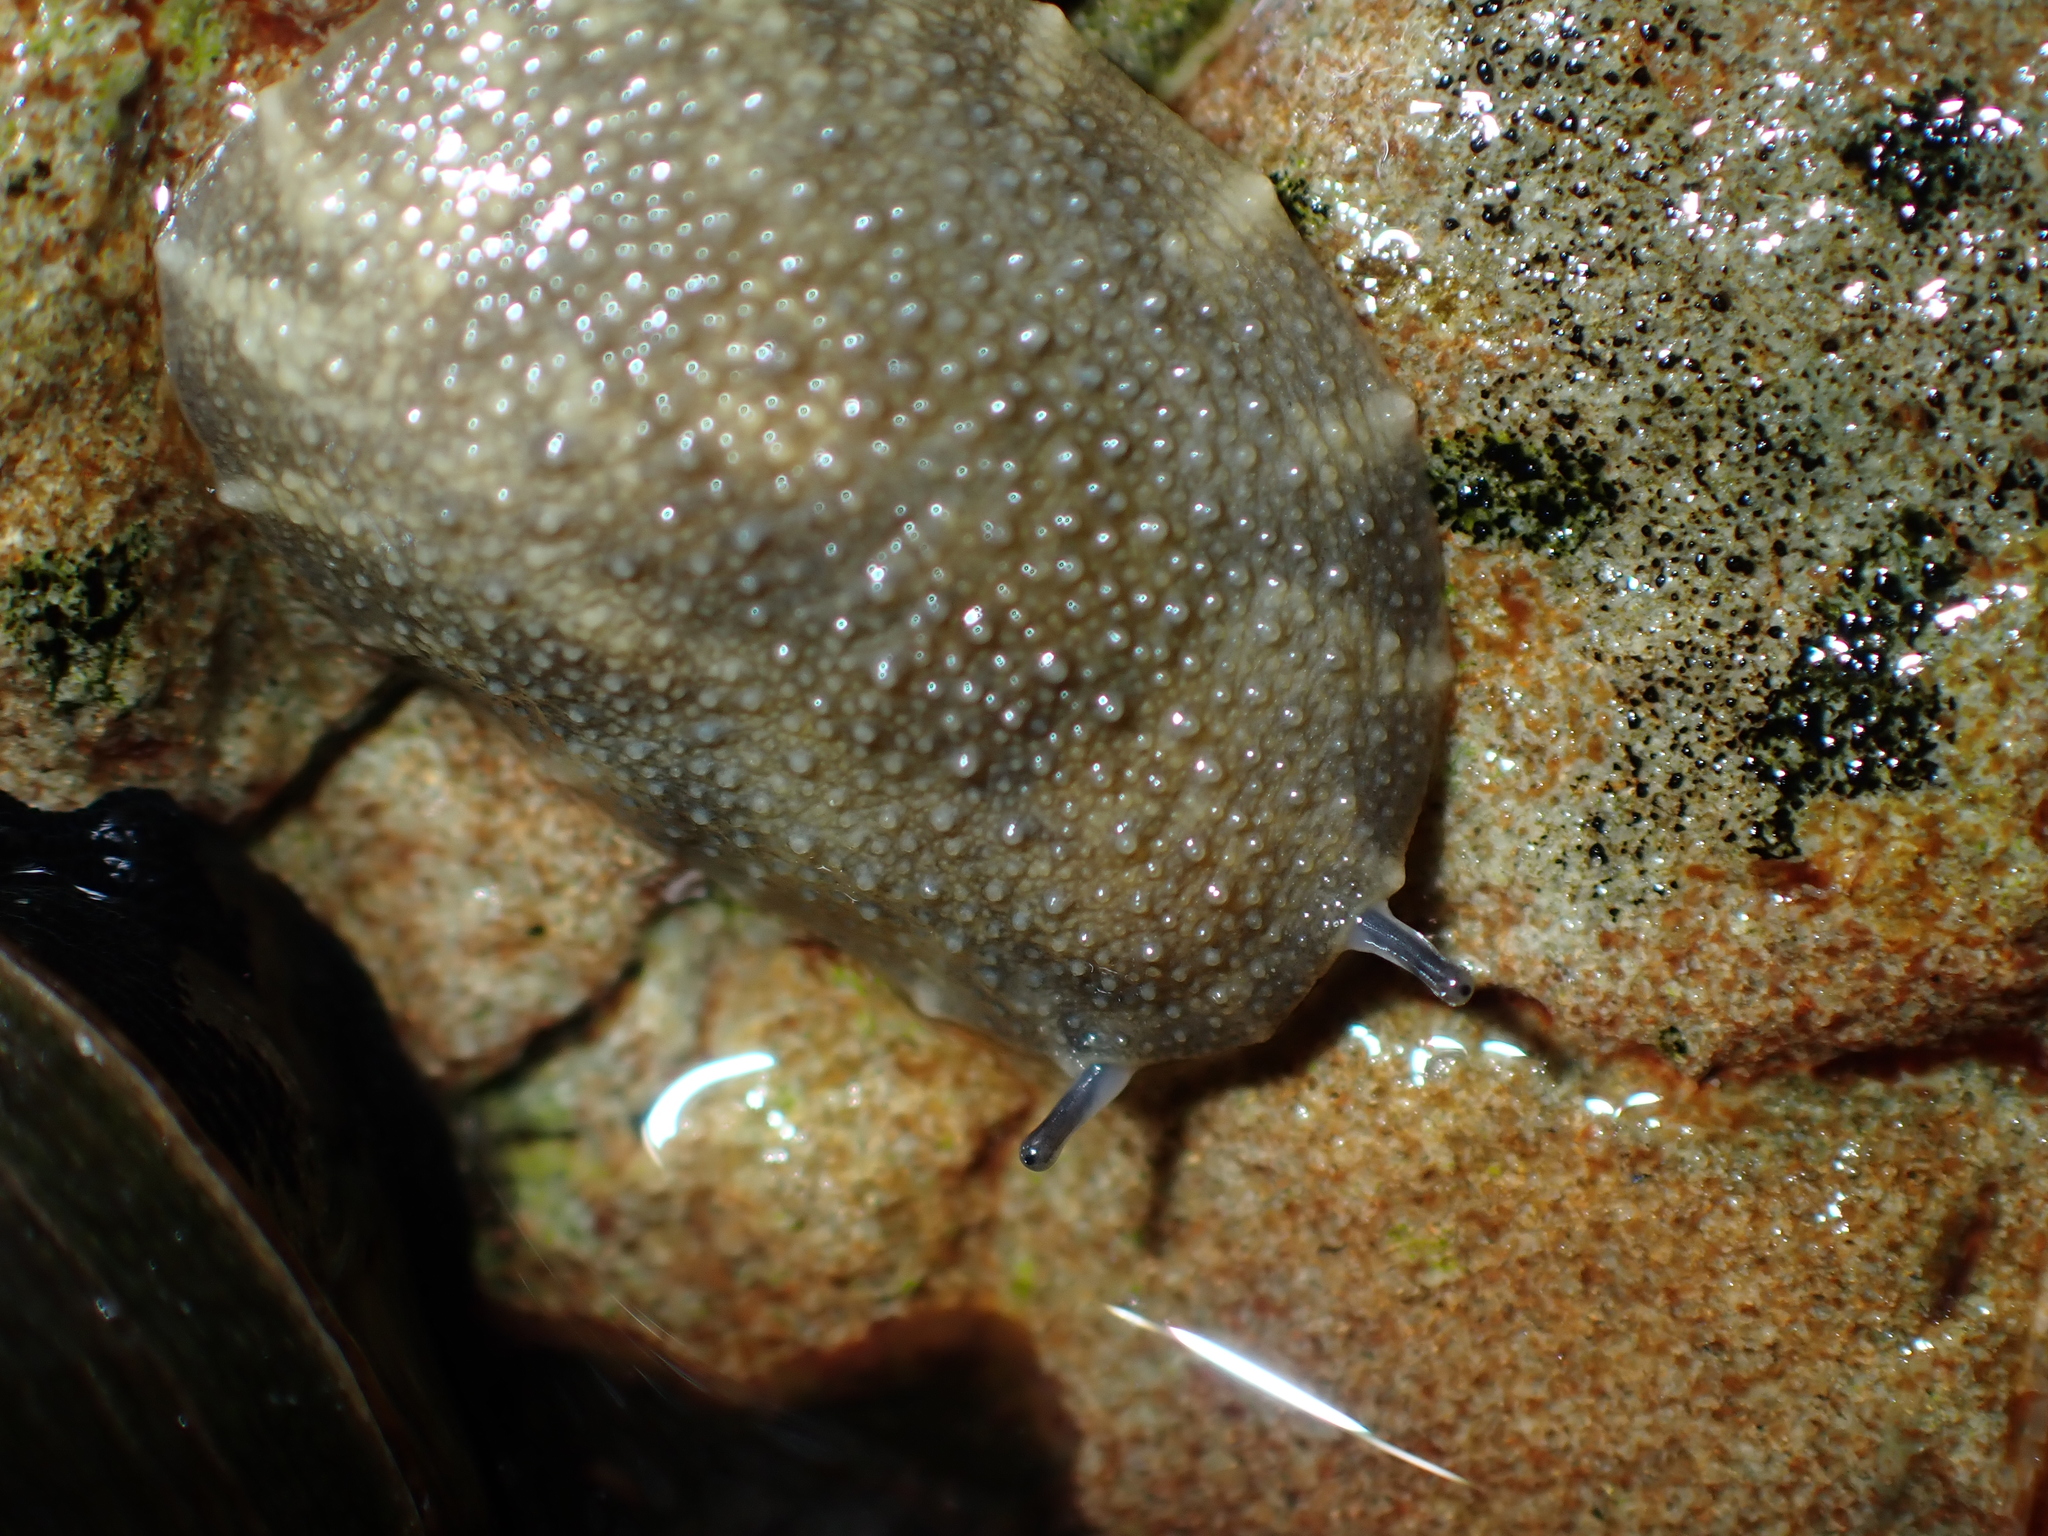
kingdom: Animalia
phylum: Mollusca
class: Gastropoda
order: Systellommatophora
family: Onchidiidae
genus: Onchidella
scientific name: Onchidella nigricans
